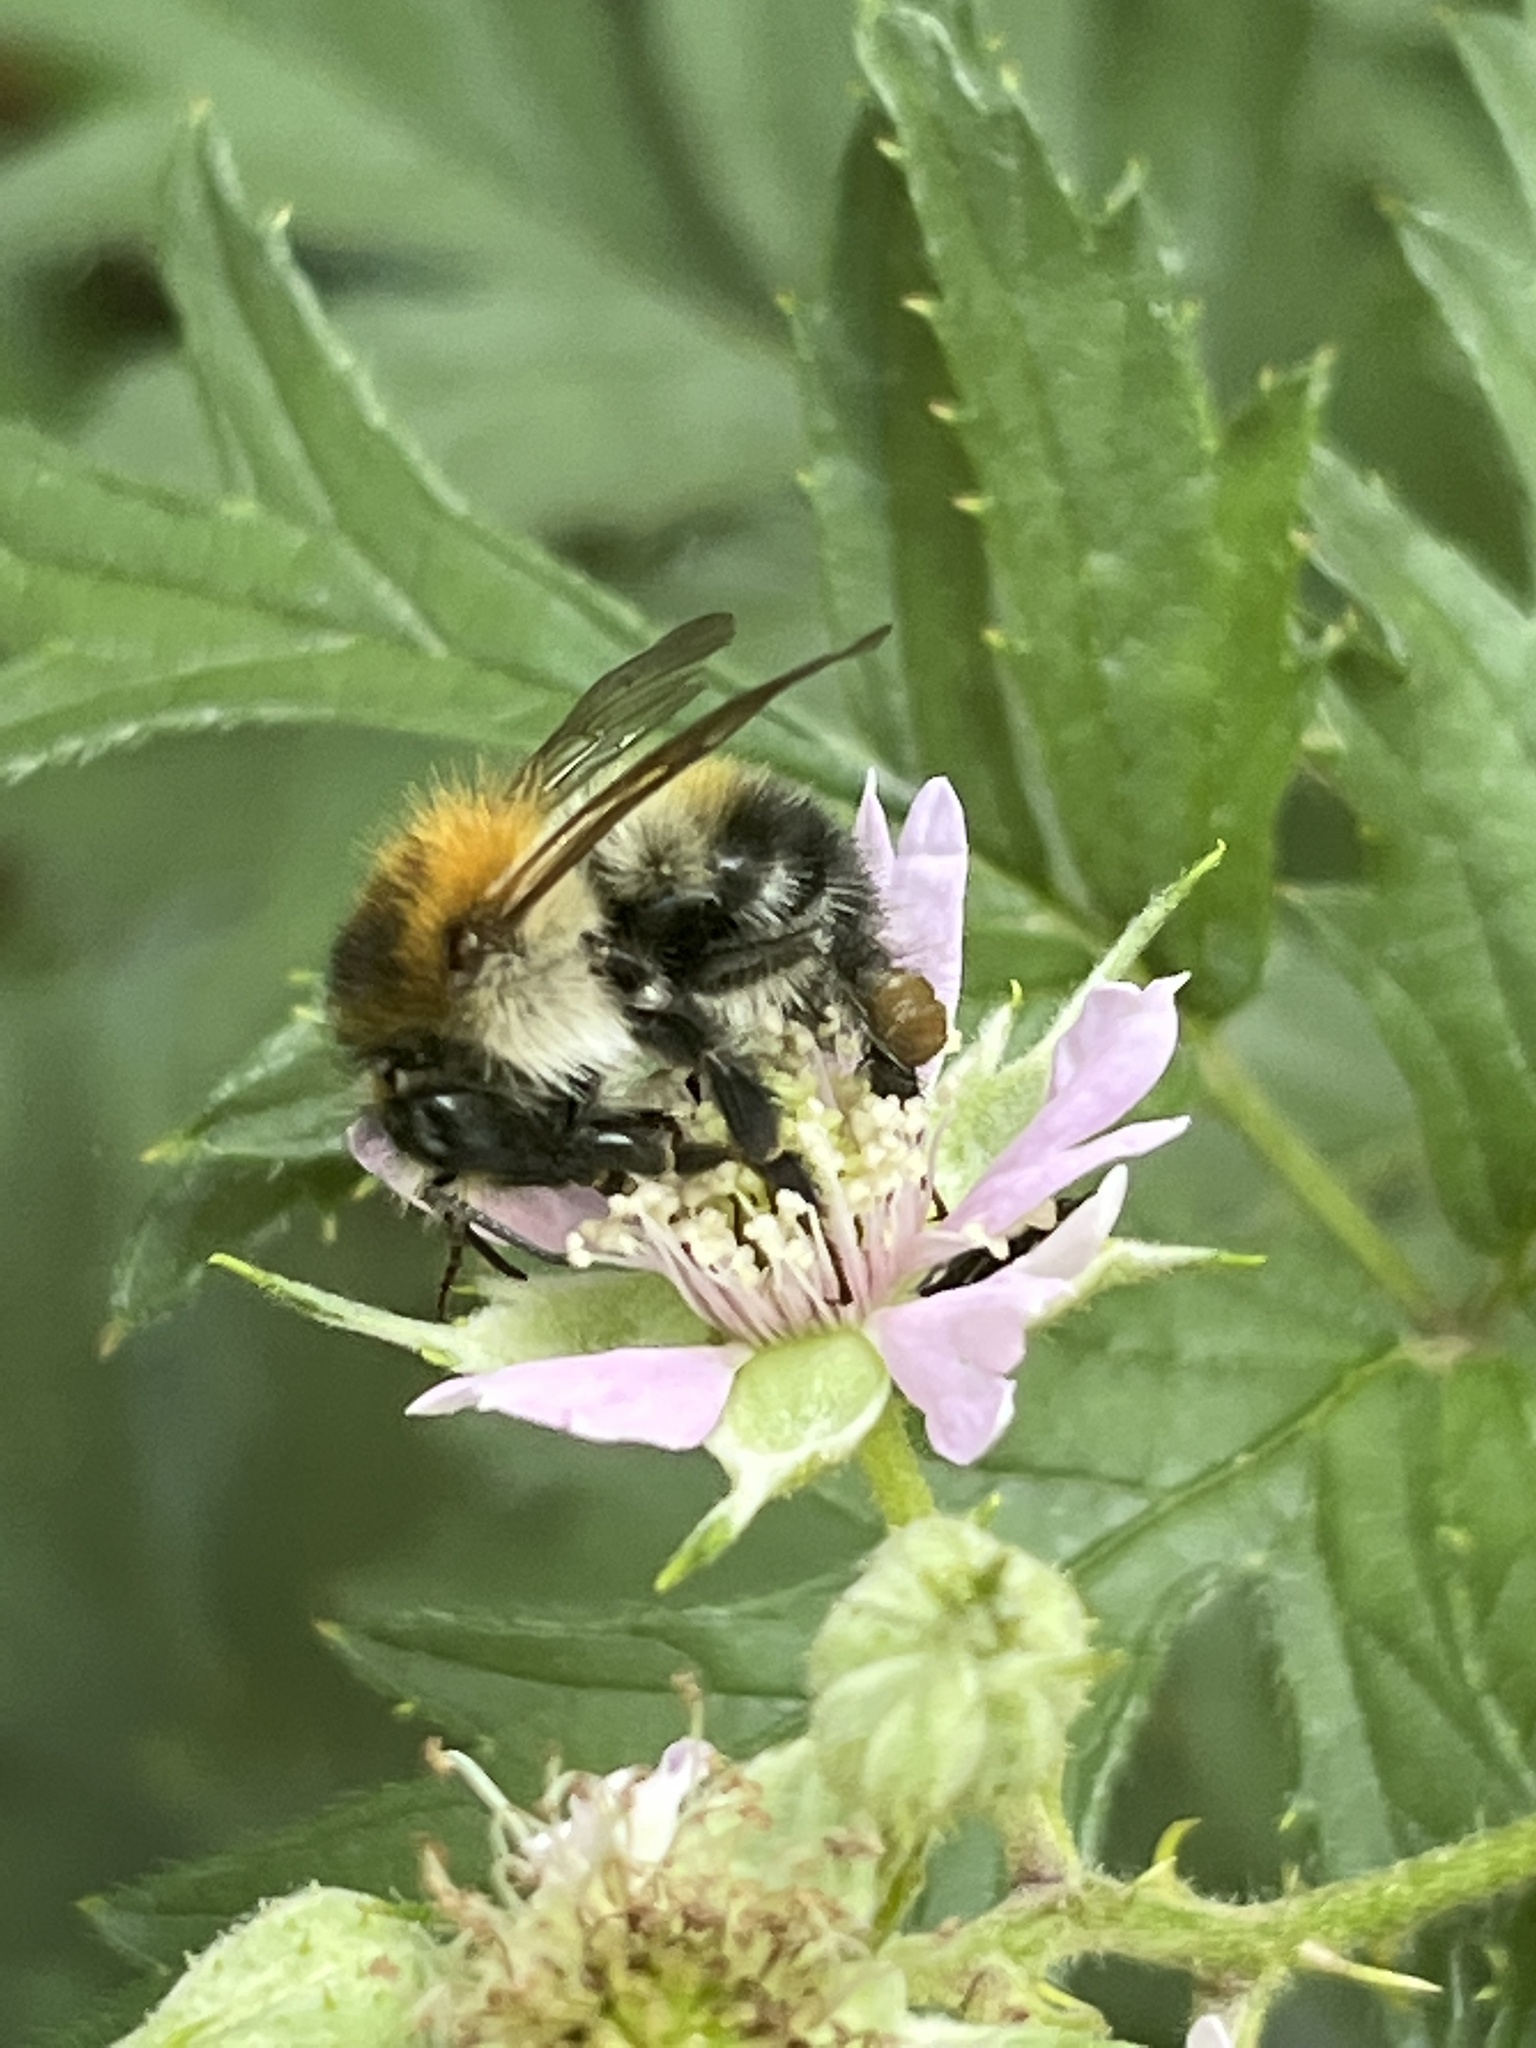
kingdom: Animalia
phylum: Arthropoda
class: Insecta
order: Hymenoptera
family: Apidae
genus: Bombus
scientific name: Bombus pascuorum
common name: Common carder bee
